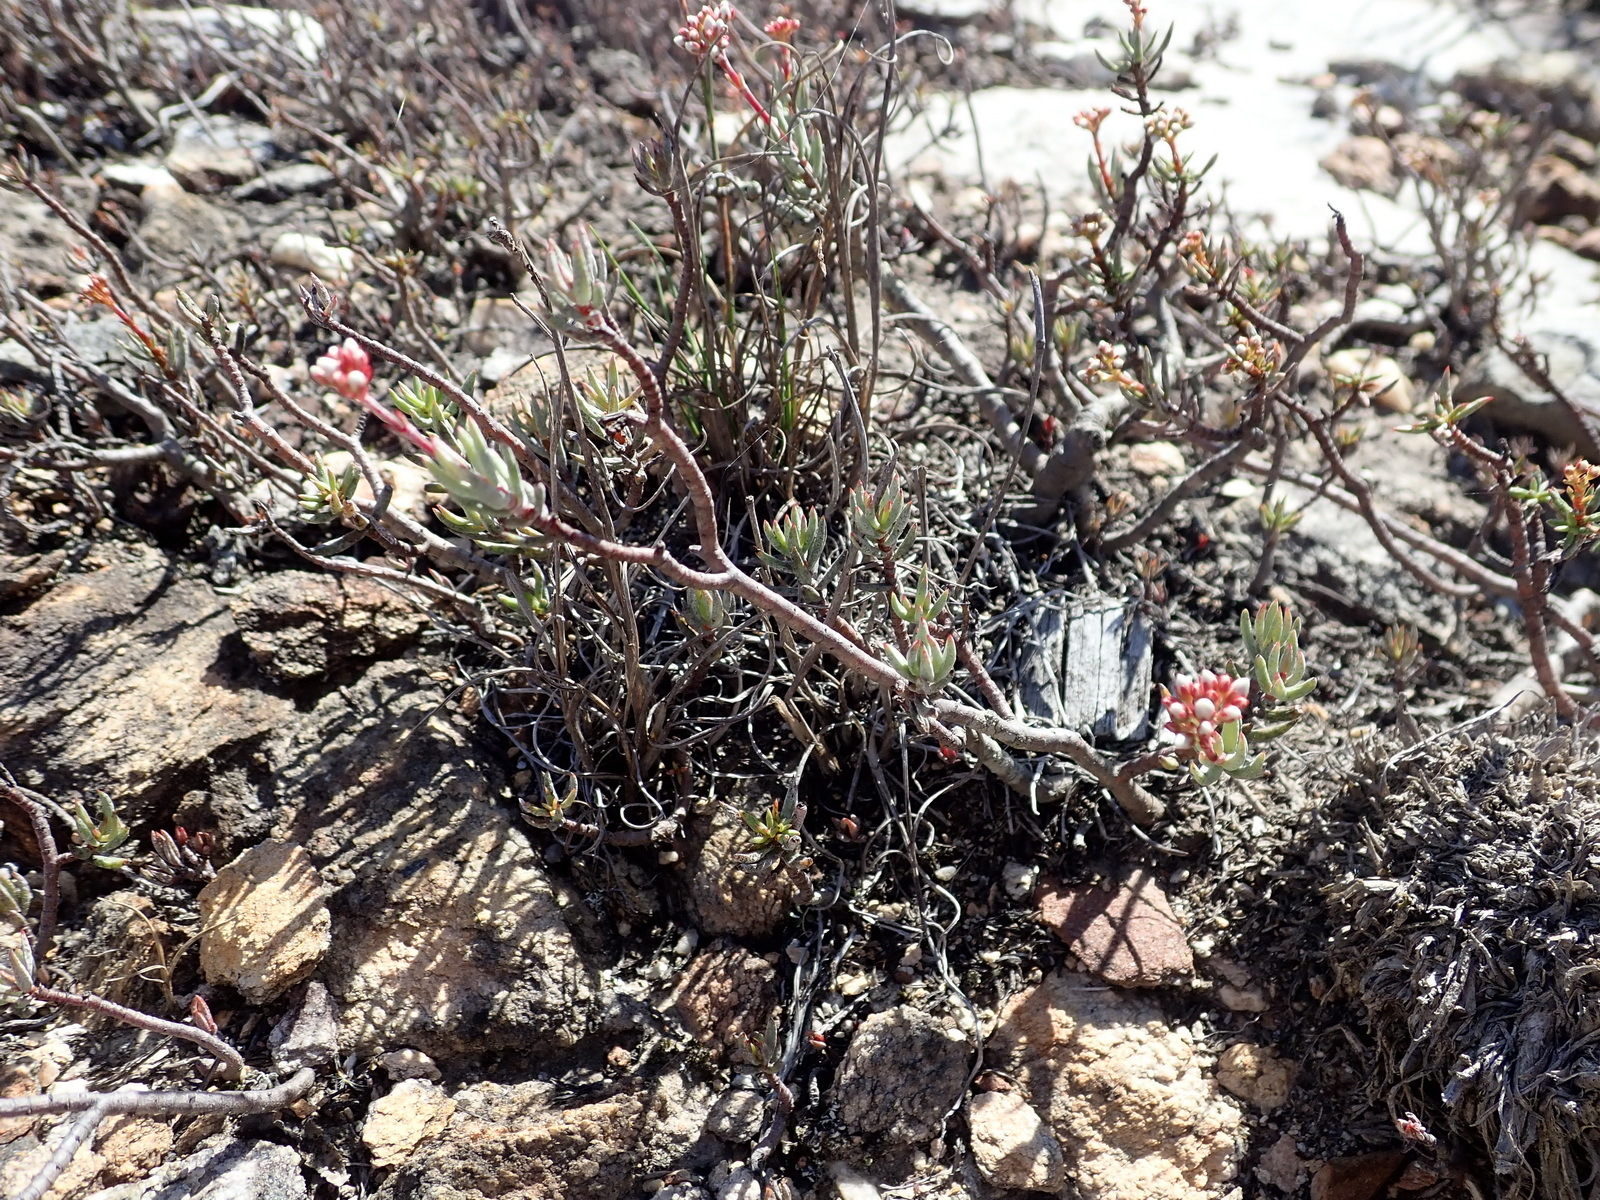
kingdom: Plantae
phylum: Tracheophyta
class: Magnoliopsida
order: Saxifragales
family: Crassulaceae
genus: Crassula
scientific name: Crassula biplanata
